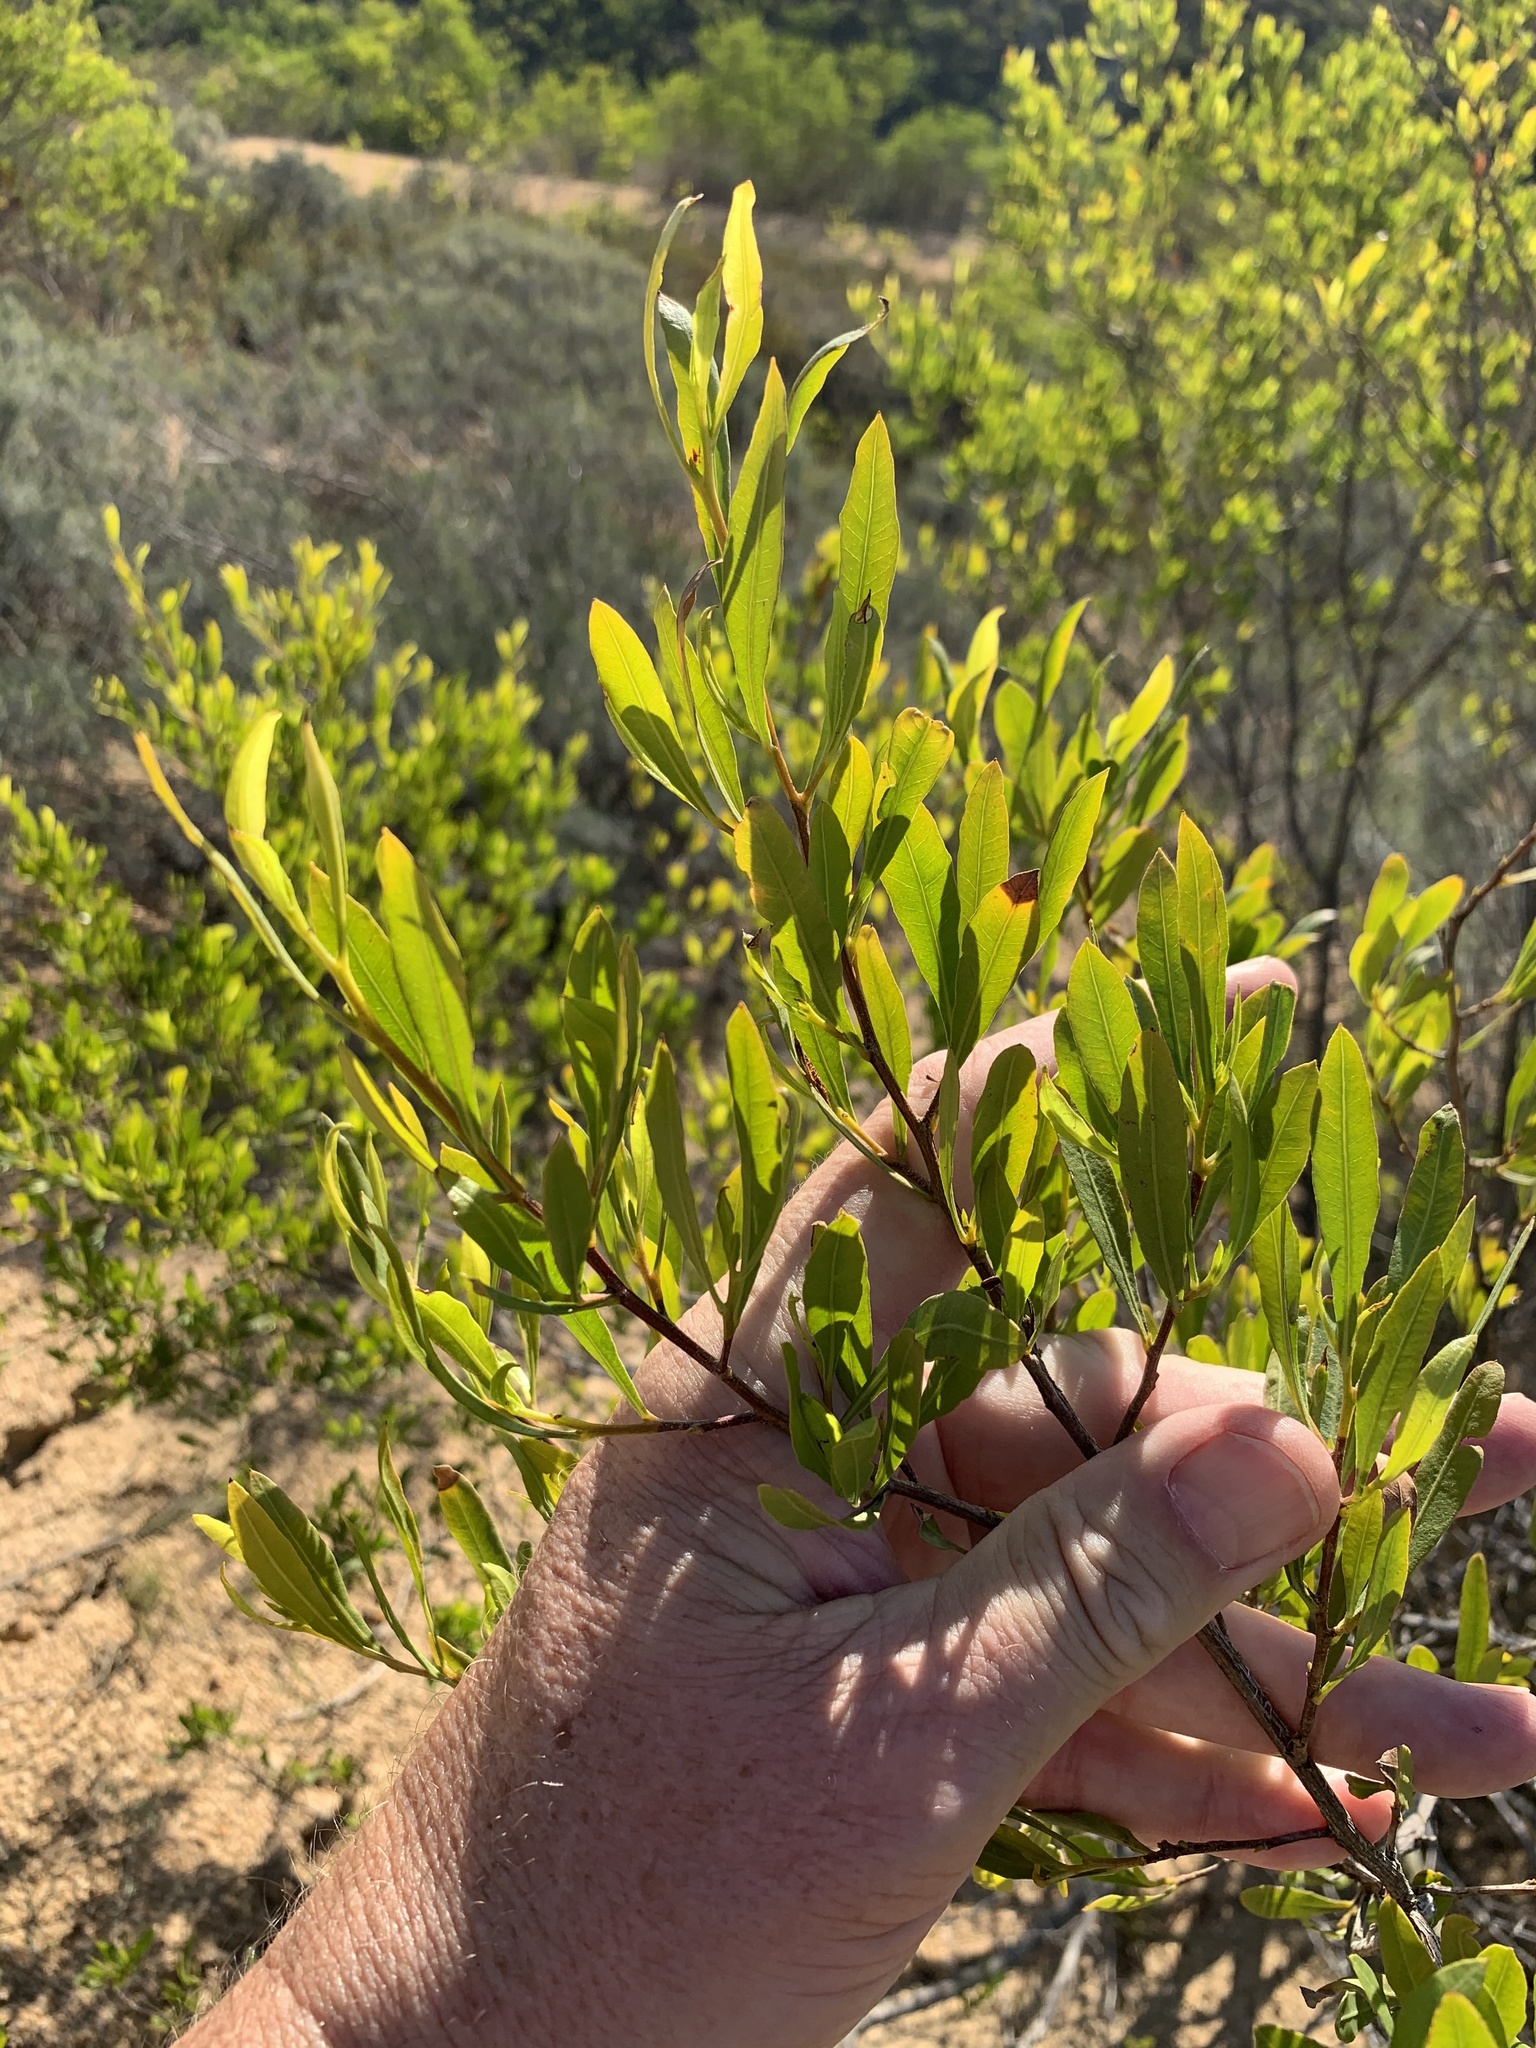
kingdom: Plantae
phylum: Tracheophyta
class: Magnoliopsida
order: Sapindales
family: Sapindaceae
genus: Dodonaea
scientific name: Dodonaea viscosa
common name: Hopbush
